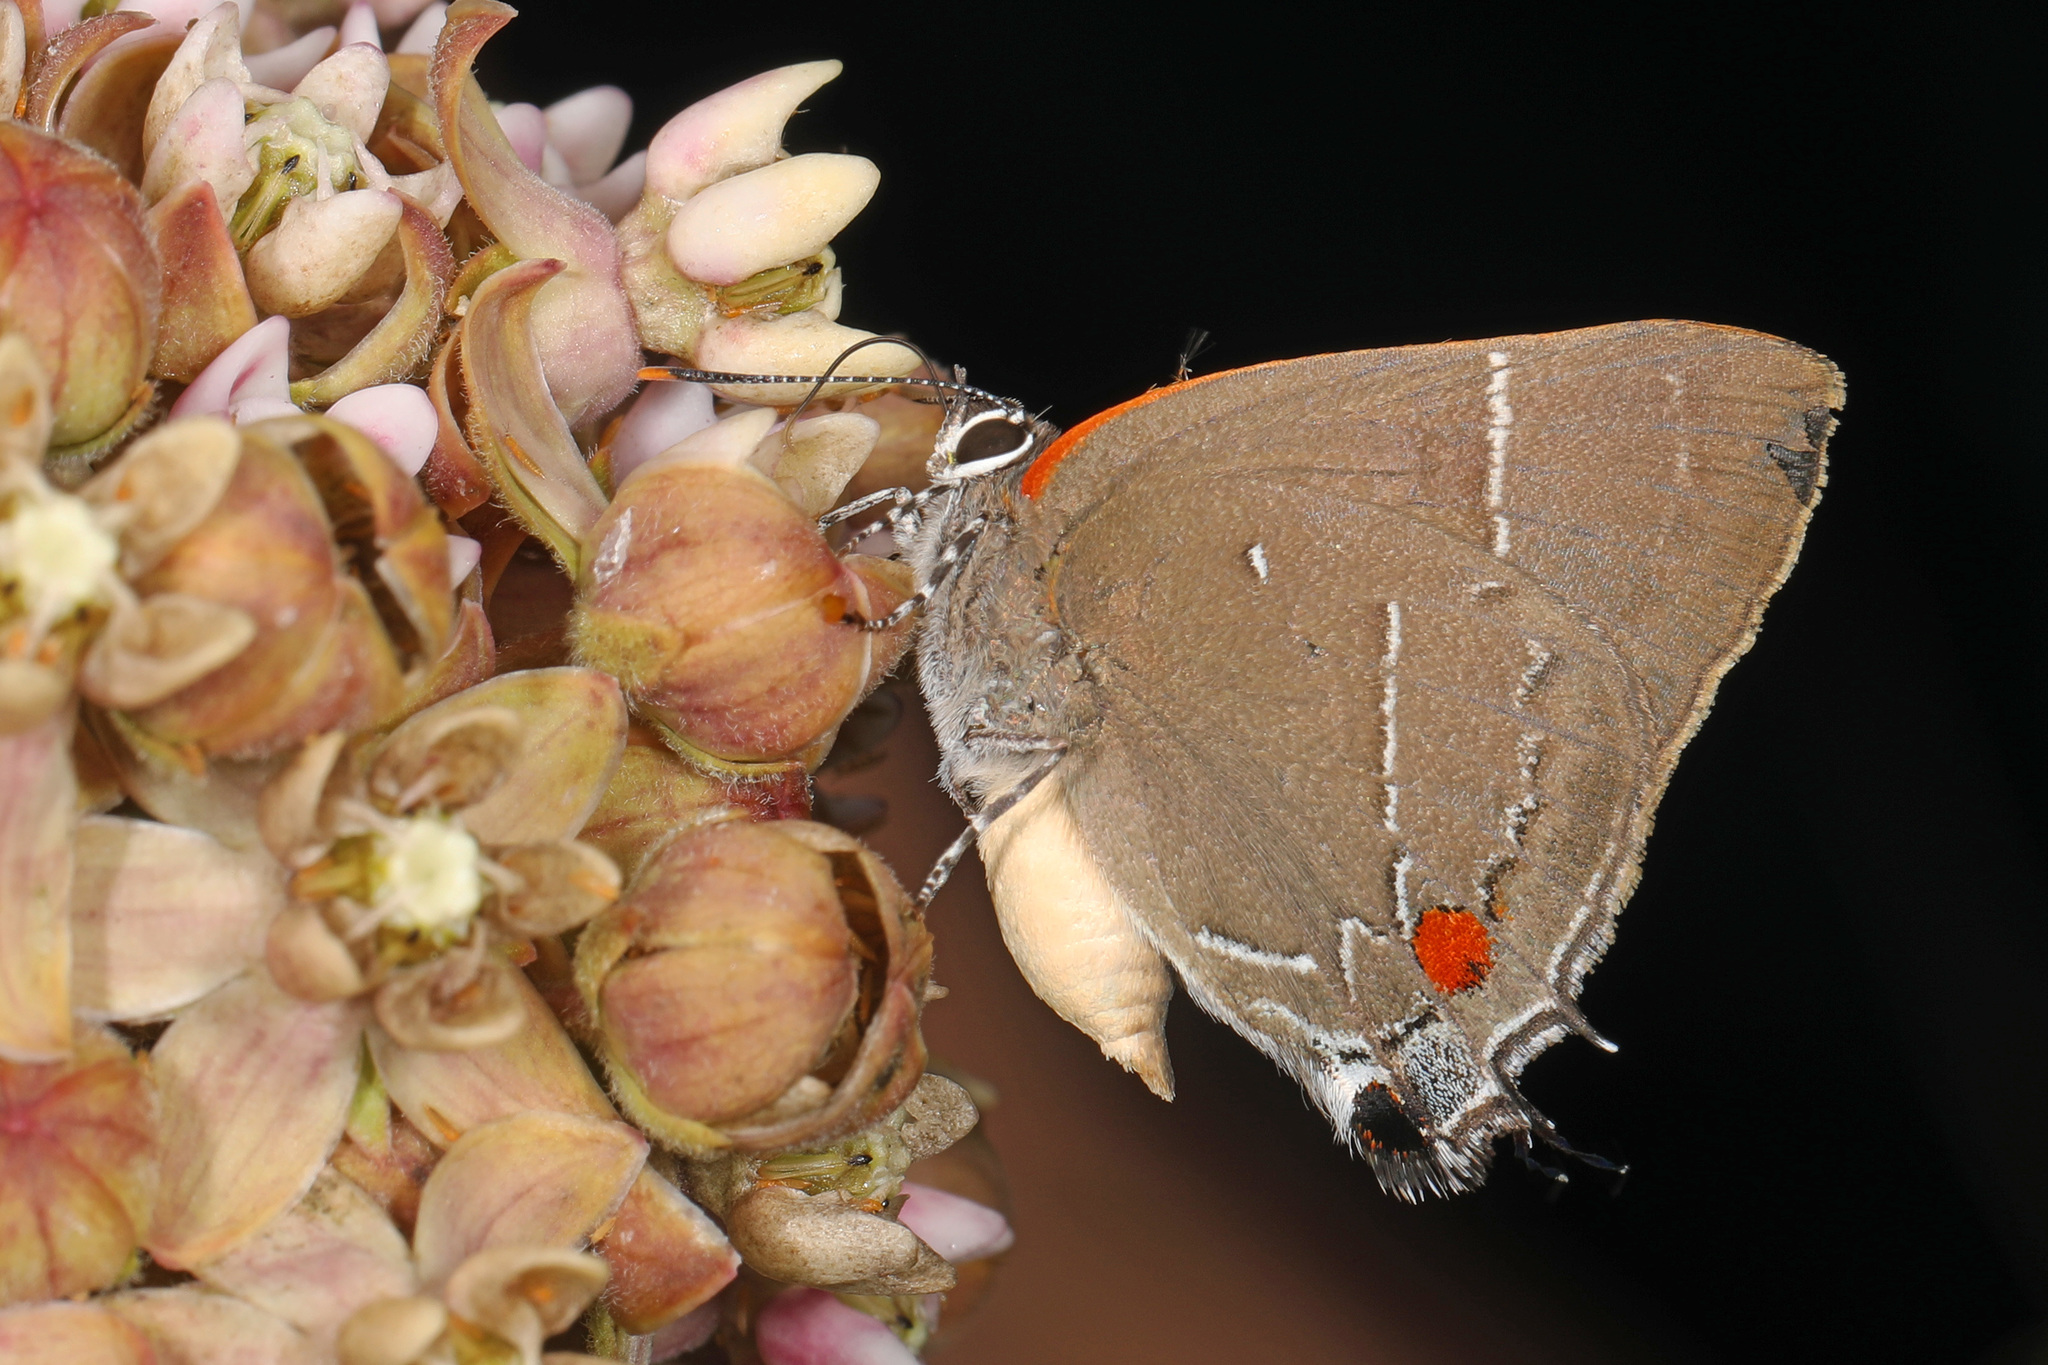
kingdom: Animalia
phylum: Arthropoda
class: Insecta
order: Lepidoptera
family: Lycaenidae
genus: Parrhasius
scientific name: Parrhasius m-album
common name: White m hairstreak
